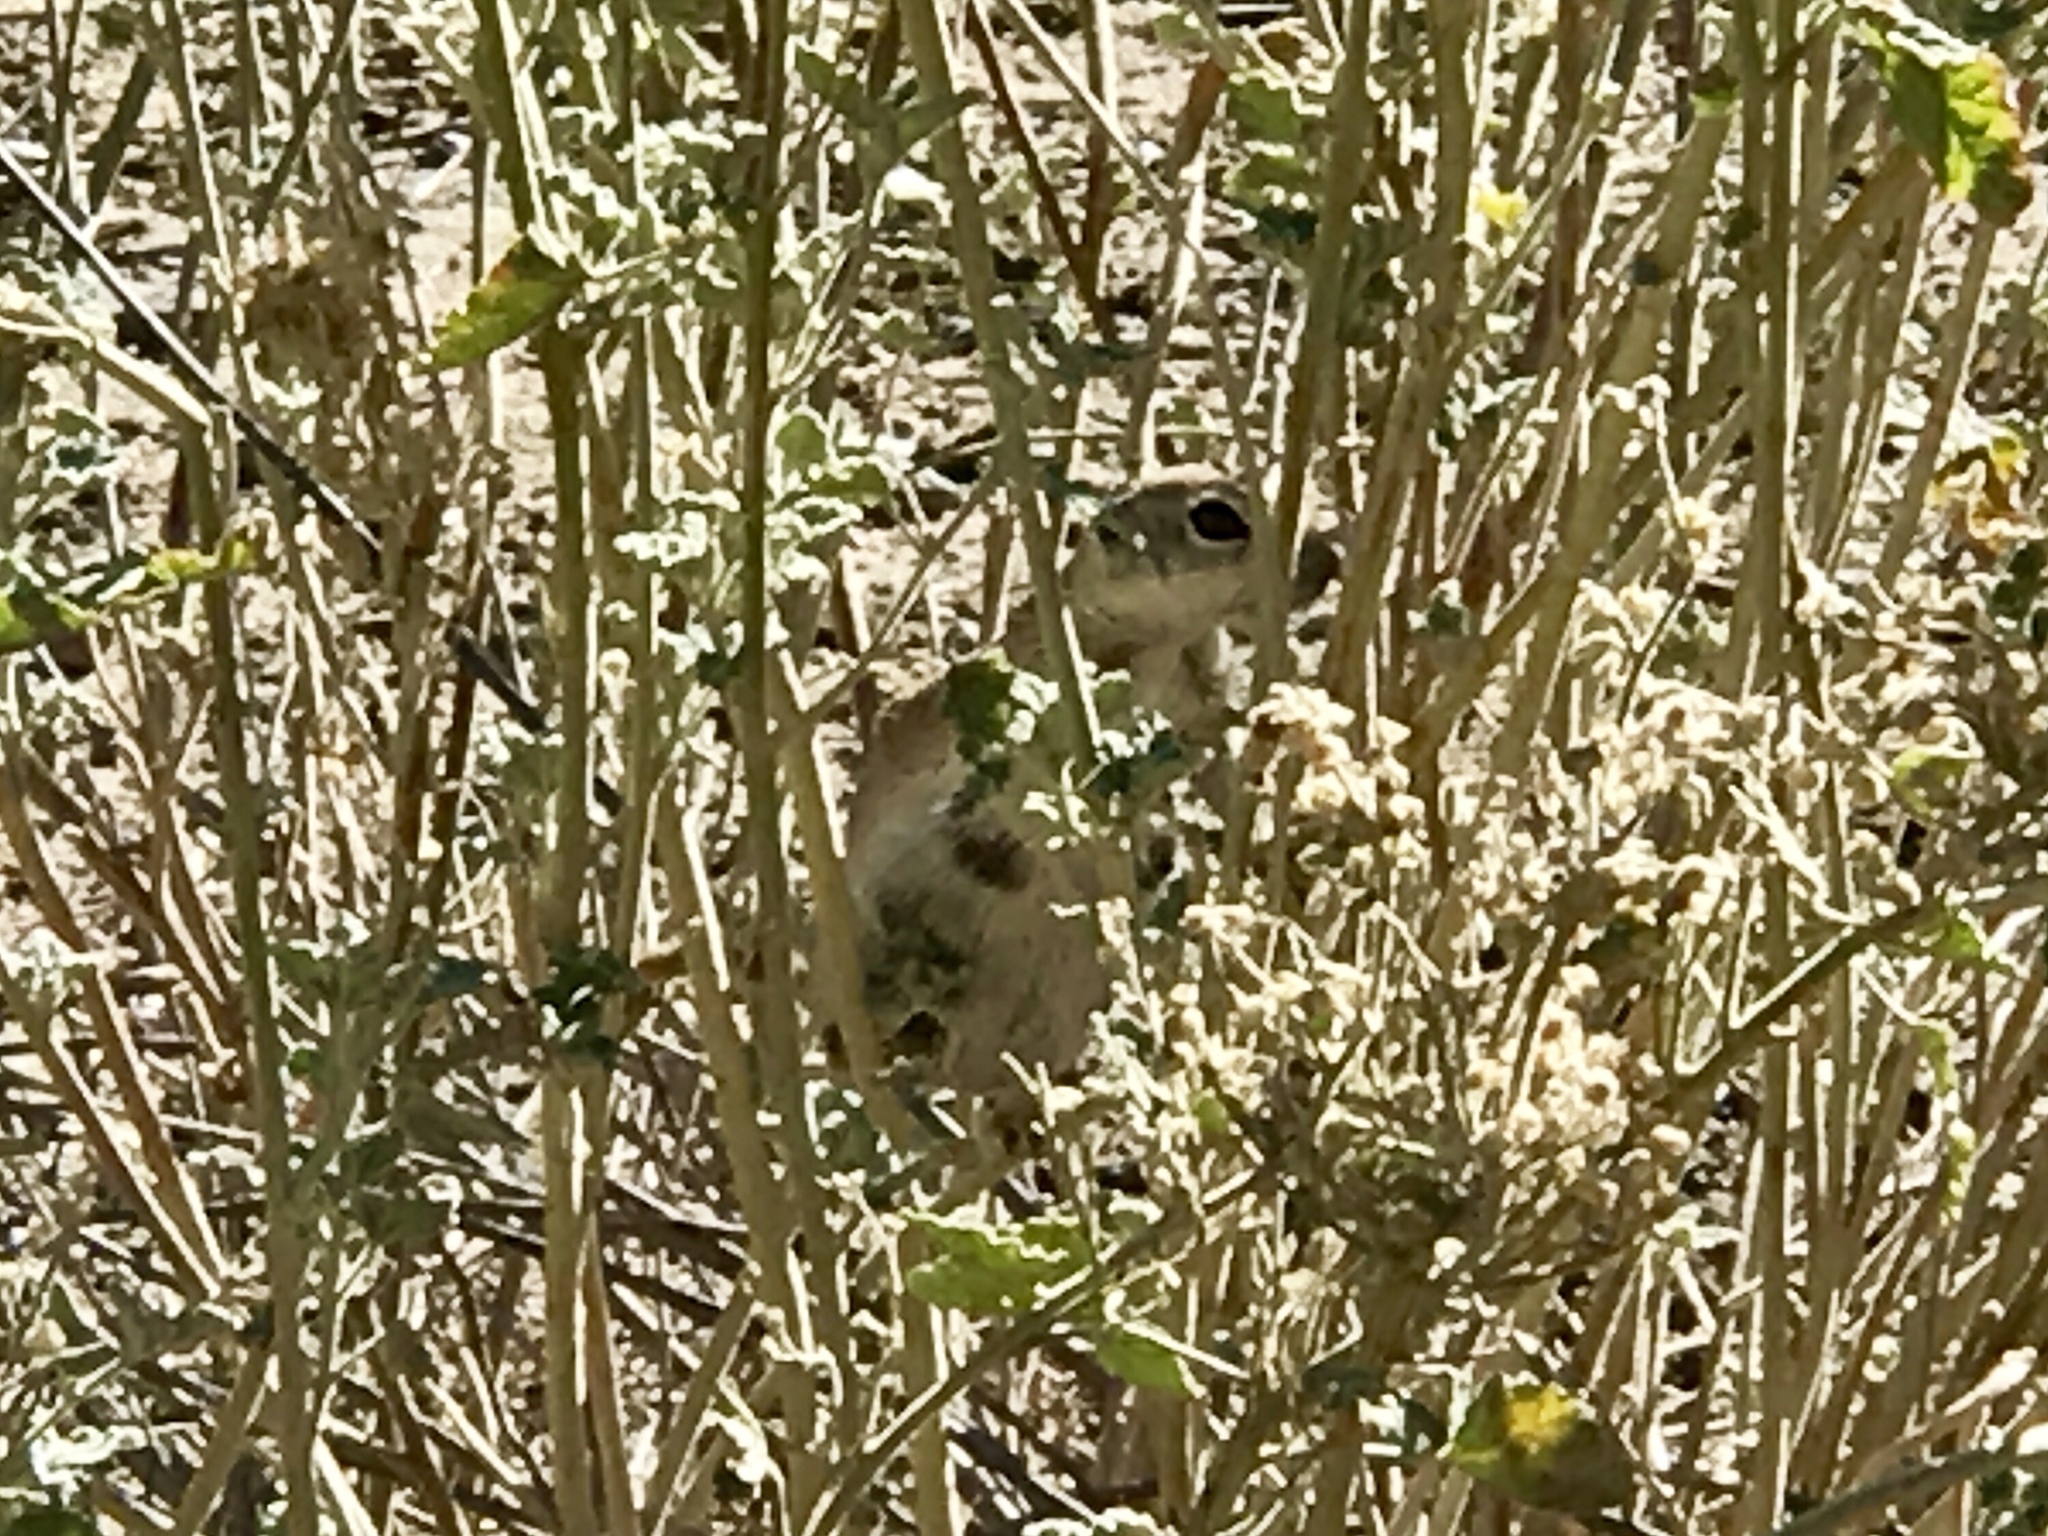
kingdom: Animalia
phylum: Chordata
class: Mammalia
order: Rodentia
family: Sciuridae
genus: Xerospermophilus
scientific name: Xerospermophilus tereticaudus
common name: Round-tailed ground squirrel
